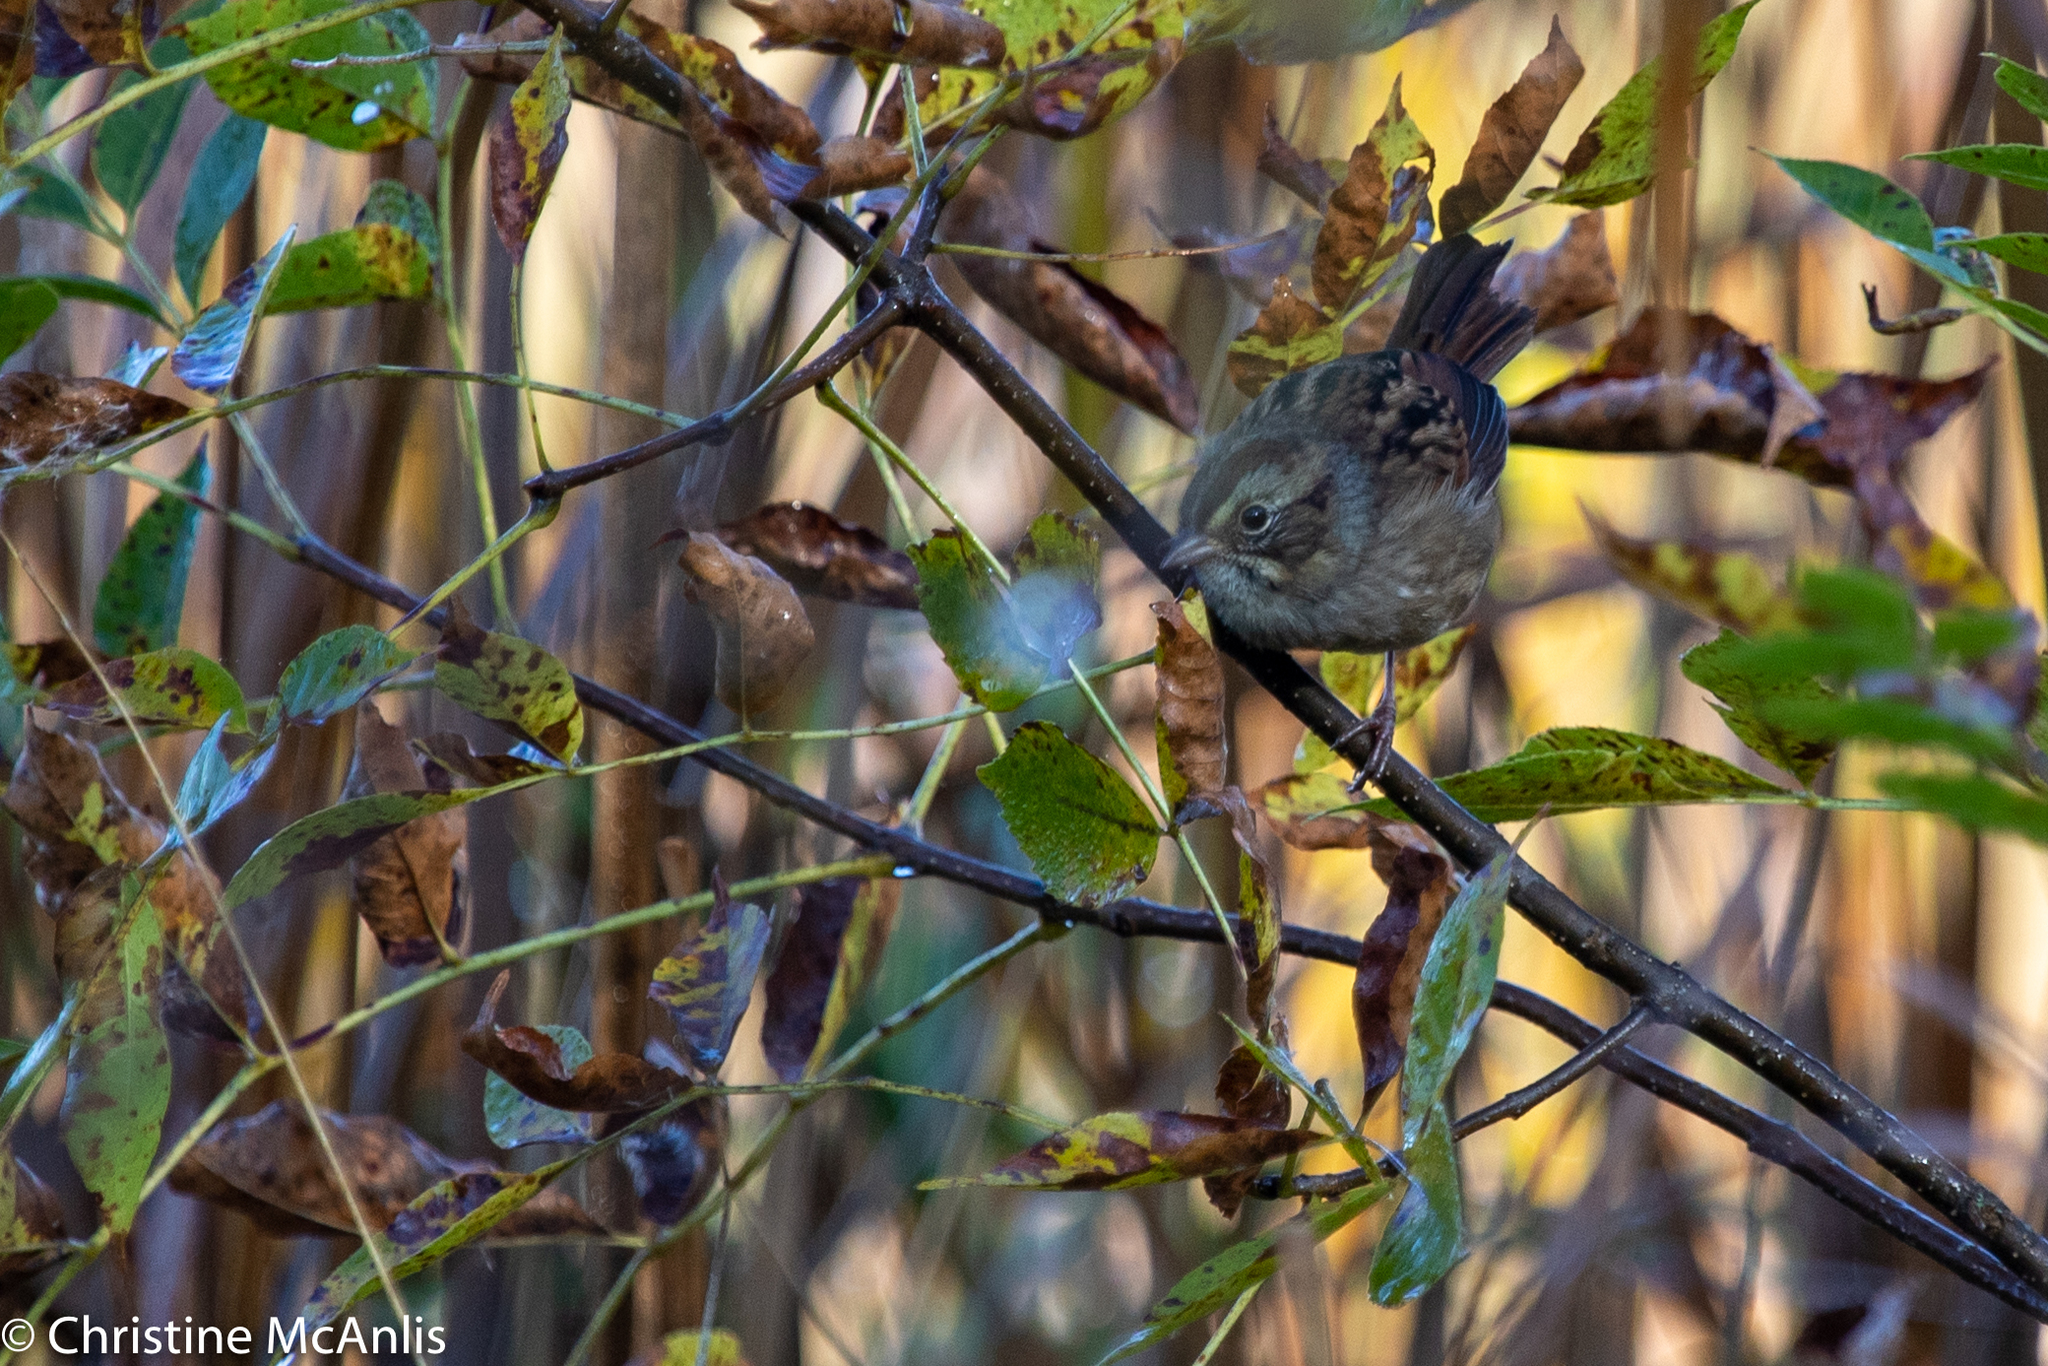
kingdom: Animalia
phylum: Chordata
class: Aves
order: Passeriformes
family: Passerellidae
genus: Melospiza
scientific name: Melospiza georgiana
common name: Swamp sparrow
